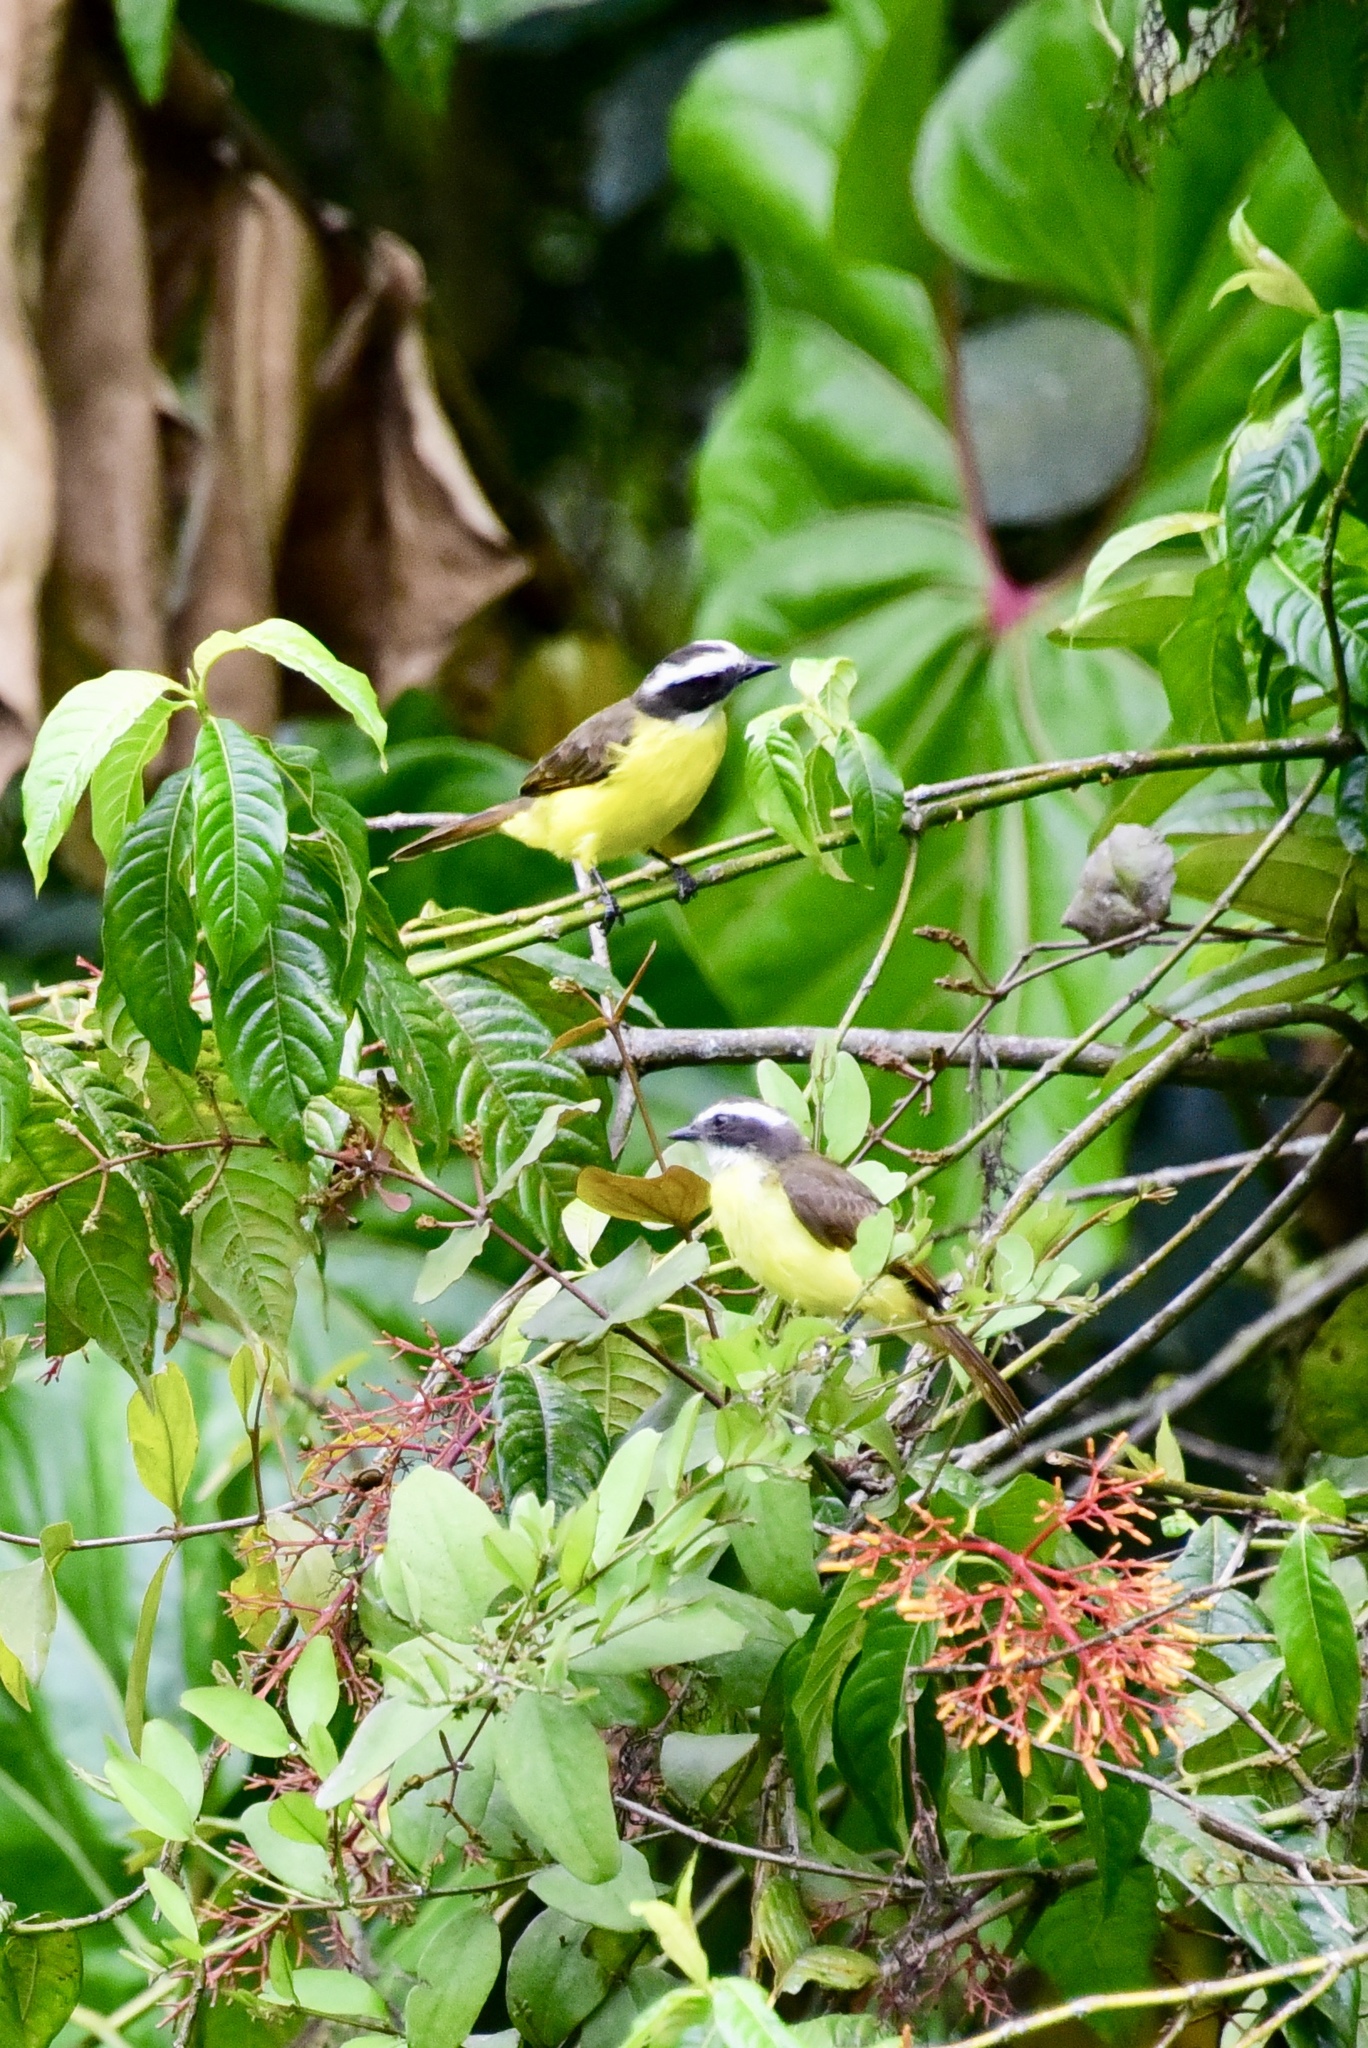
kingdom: Animalia
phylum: Chordata
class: Aves
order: Passeriformes
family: Tyrannidae
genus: Myiozetetes
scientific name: Myiozetetes cayanensis
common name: Rusty-margined flycatcher
